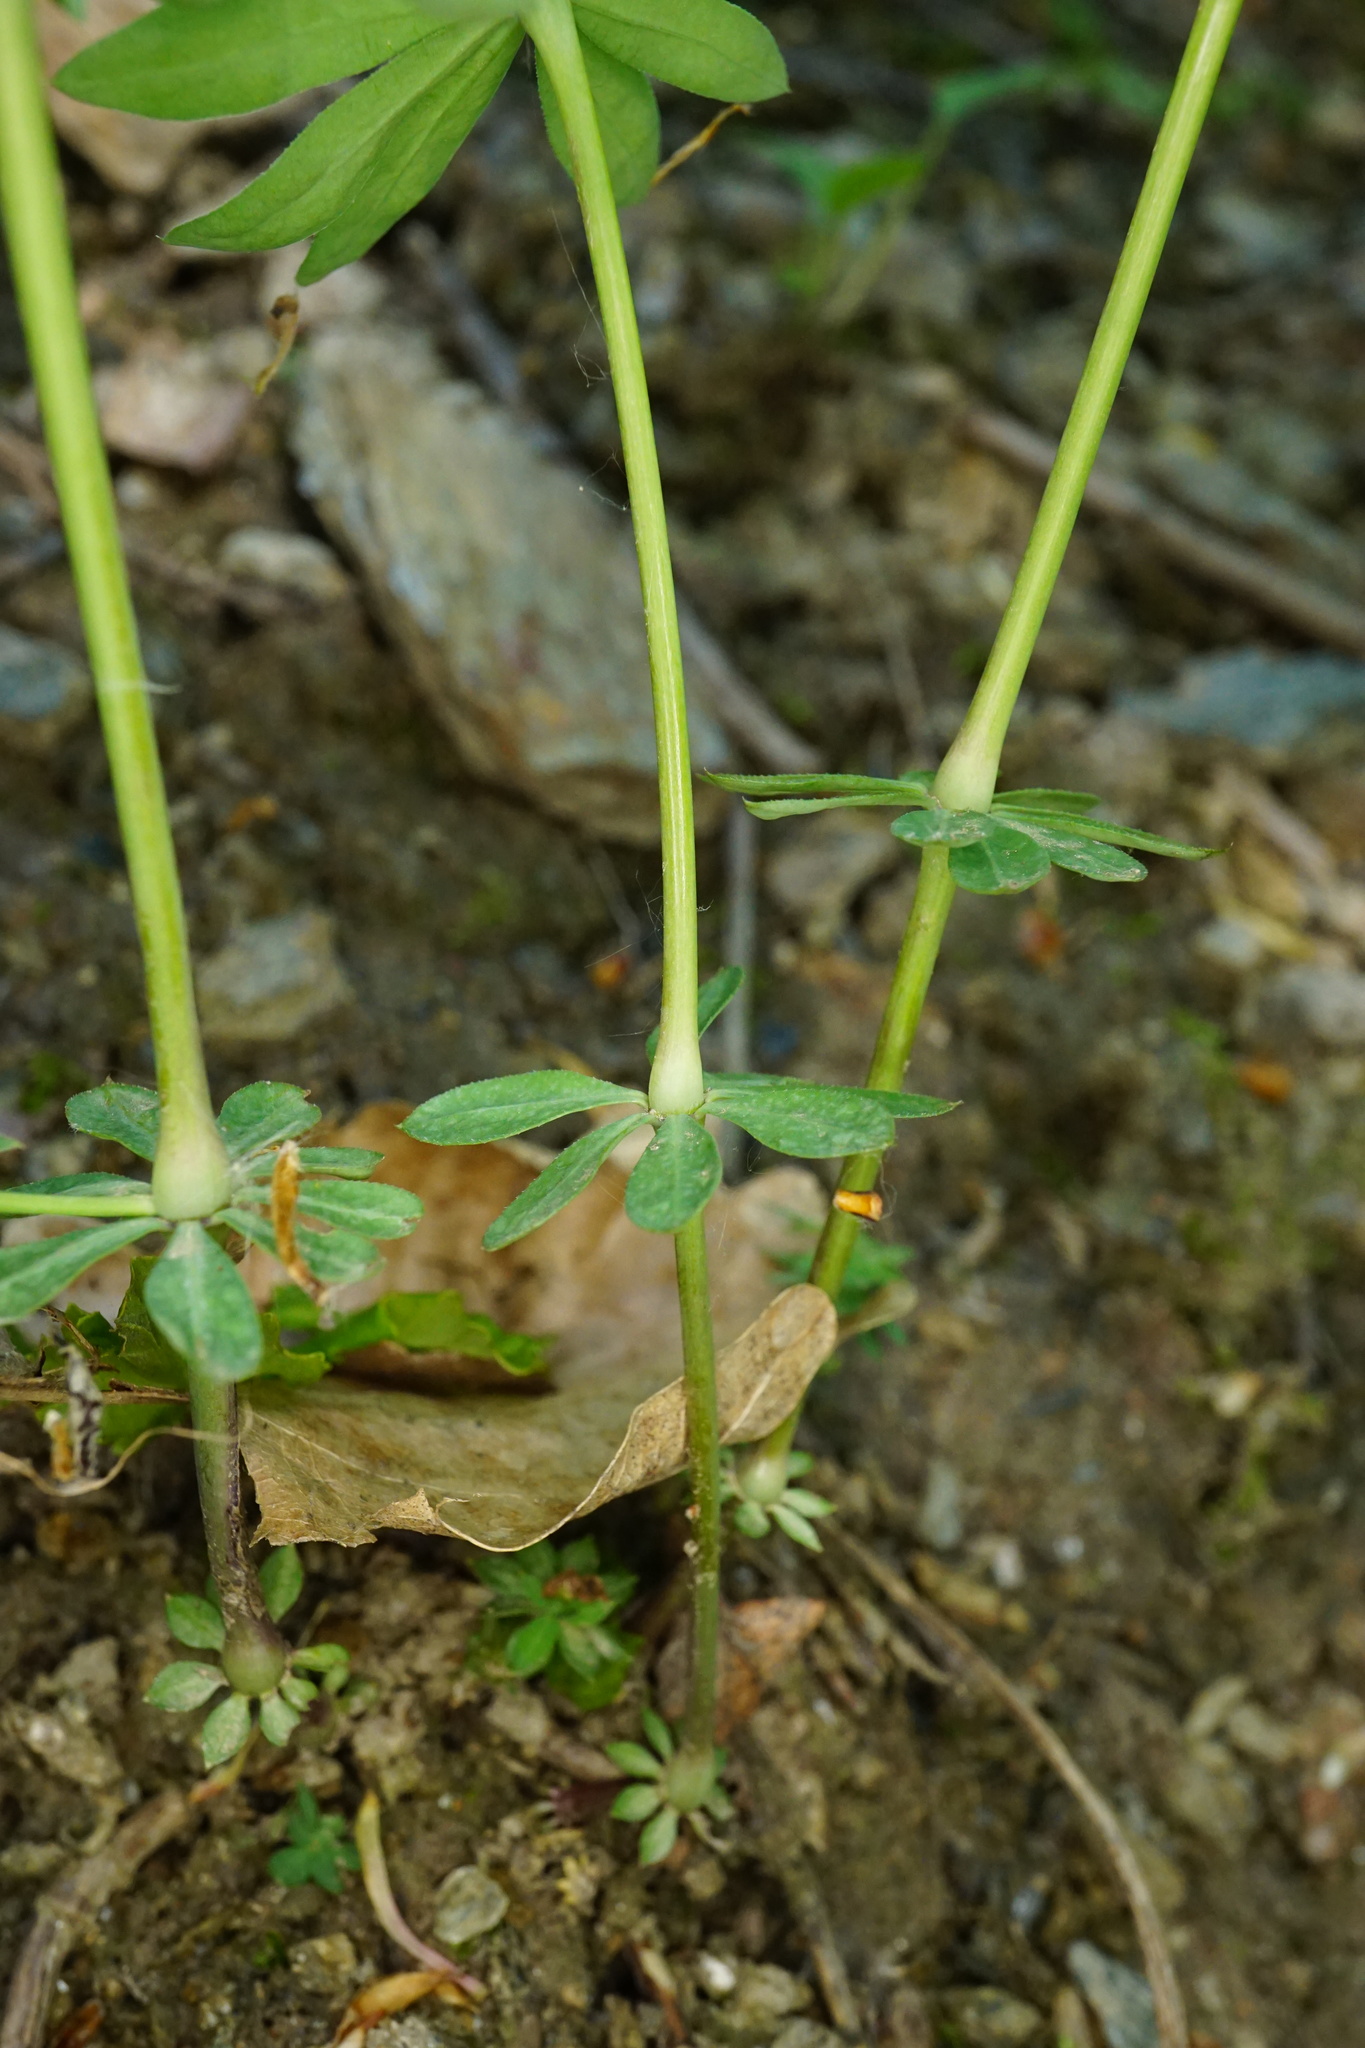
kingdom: Plantae
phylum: Tracheophyta
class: Magnoliopsida
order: Gentianales
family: Rubiaceae
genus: Galium
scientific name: Galium sylvaticum
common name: Wood bedstraw
